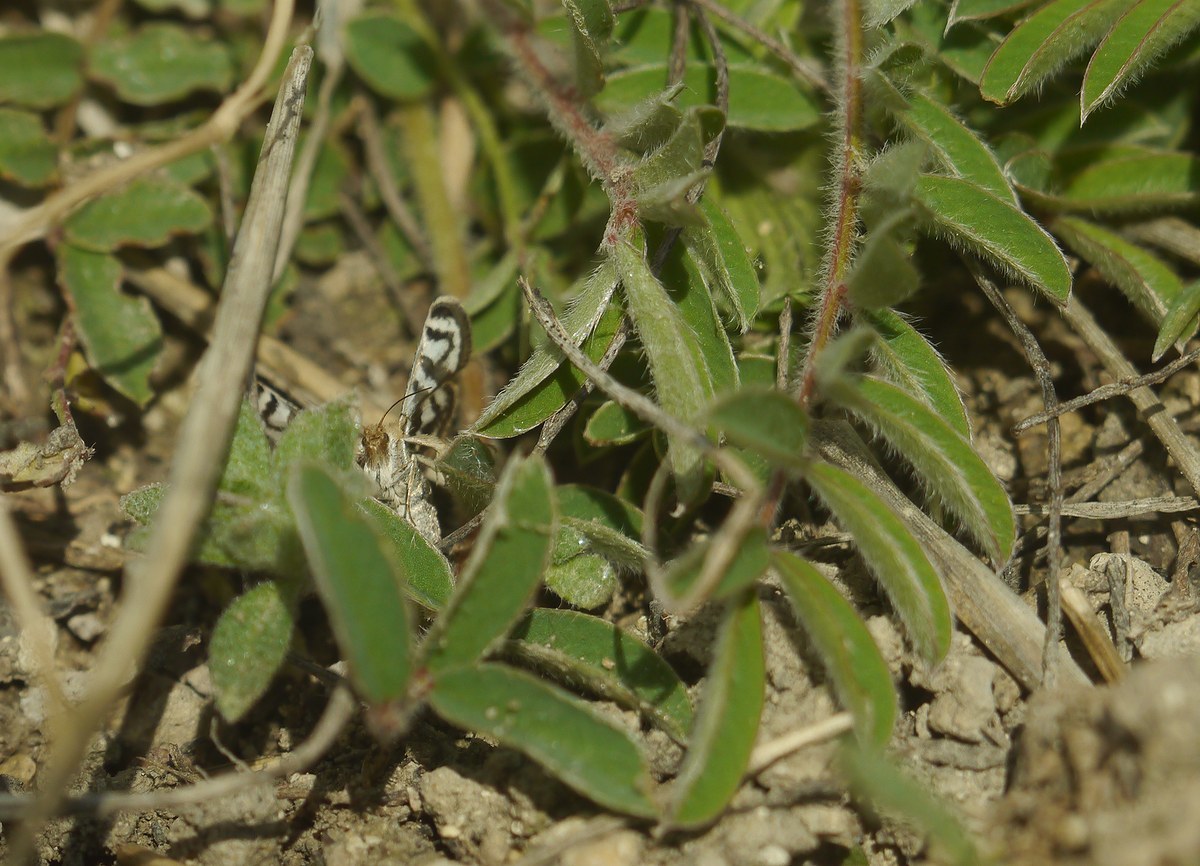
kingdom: Animalia
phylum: Arthropoda
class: Insecta
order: Lepidoptera
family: Crambidae
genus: Titanio
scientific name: Titanio normalis
